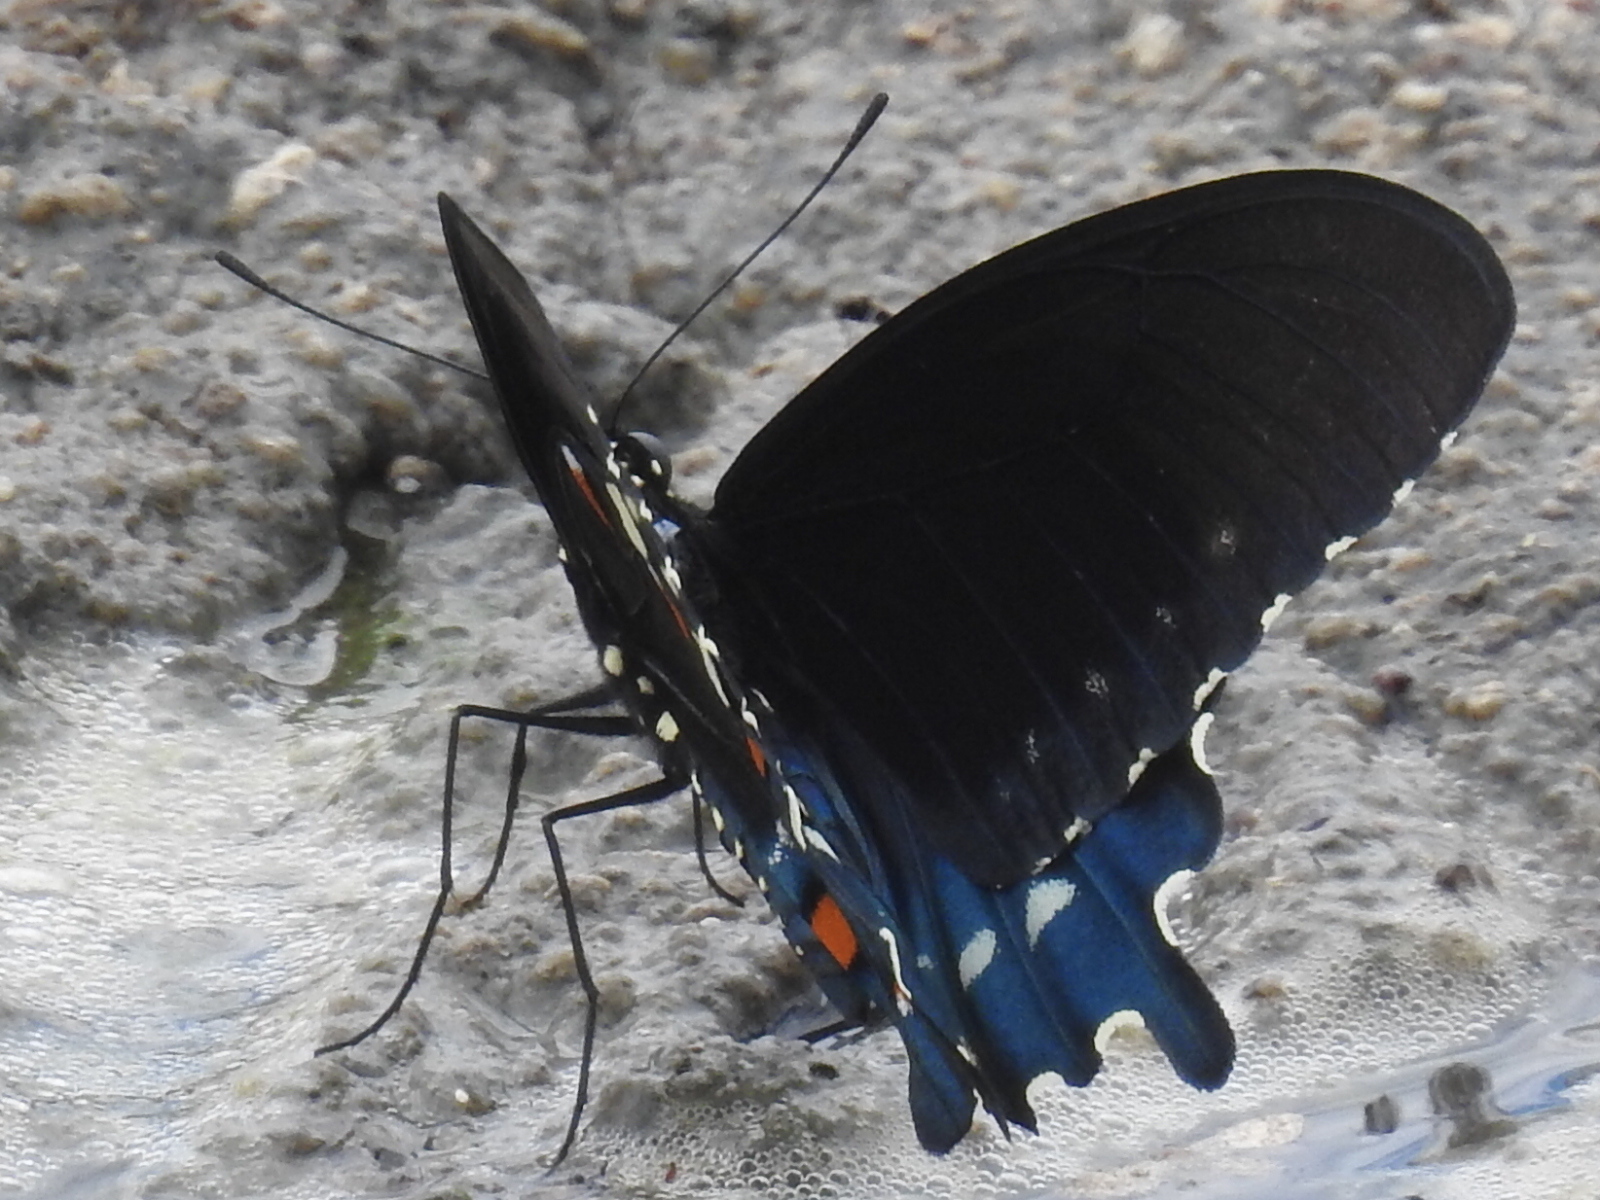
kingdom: Animalia
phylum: Arthropoda
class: Insecta
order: Lepidoptera
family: Papilionidae
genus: Battus
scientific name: Battus philenor
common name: Pipevine swallowtail
